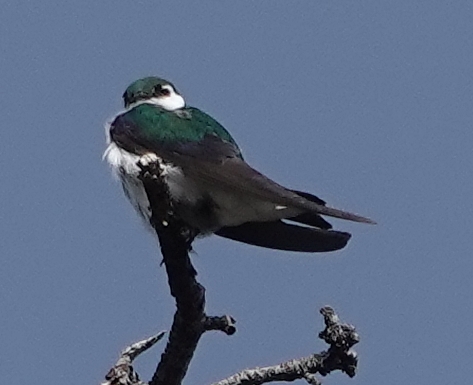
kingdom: Animalia
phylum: Chordata
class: Aves
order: Passeriformes
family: Hirundinidae
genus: Tachycineta
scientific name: Tachycineta thalassina
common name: Violet-green swallow
